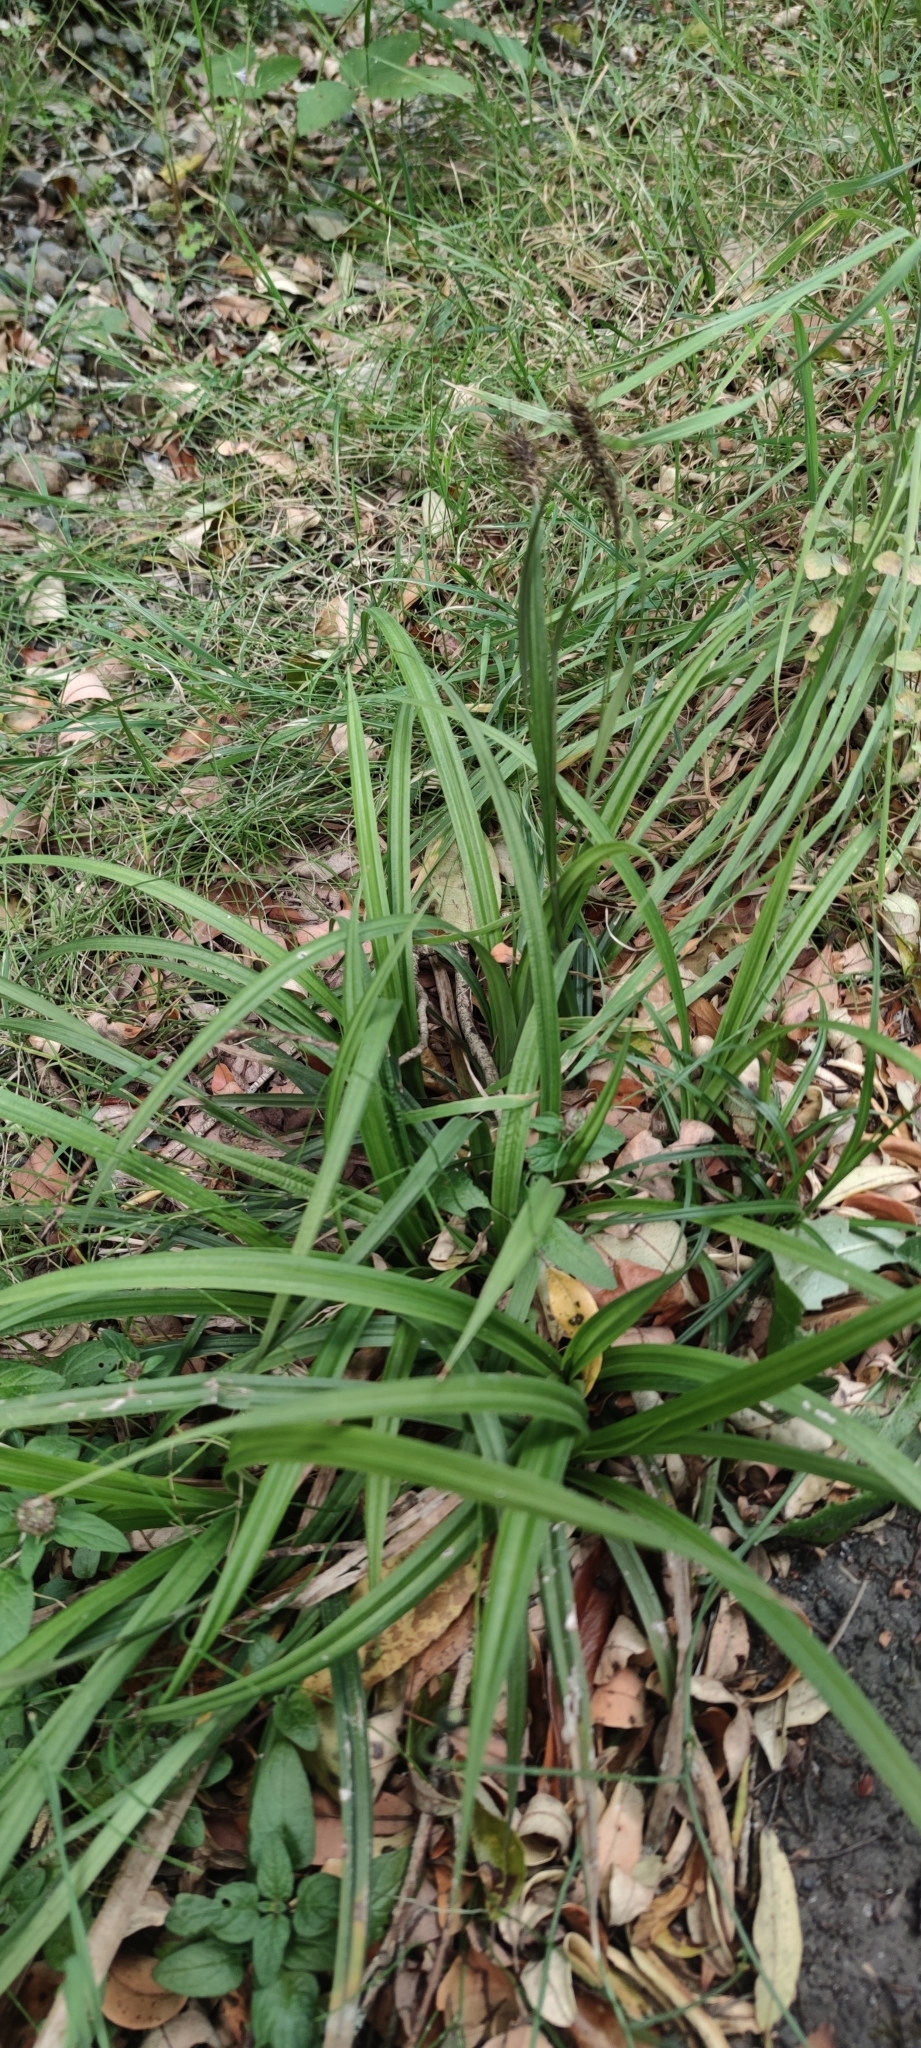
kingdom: Plantae
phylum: Tracheophyta
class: Liliopsida
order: Poales
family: Cyperaceae
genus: Carex
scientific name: Carex erinacea
